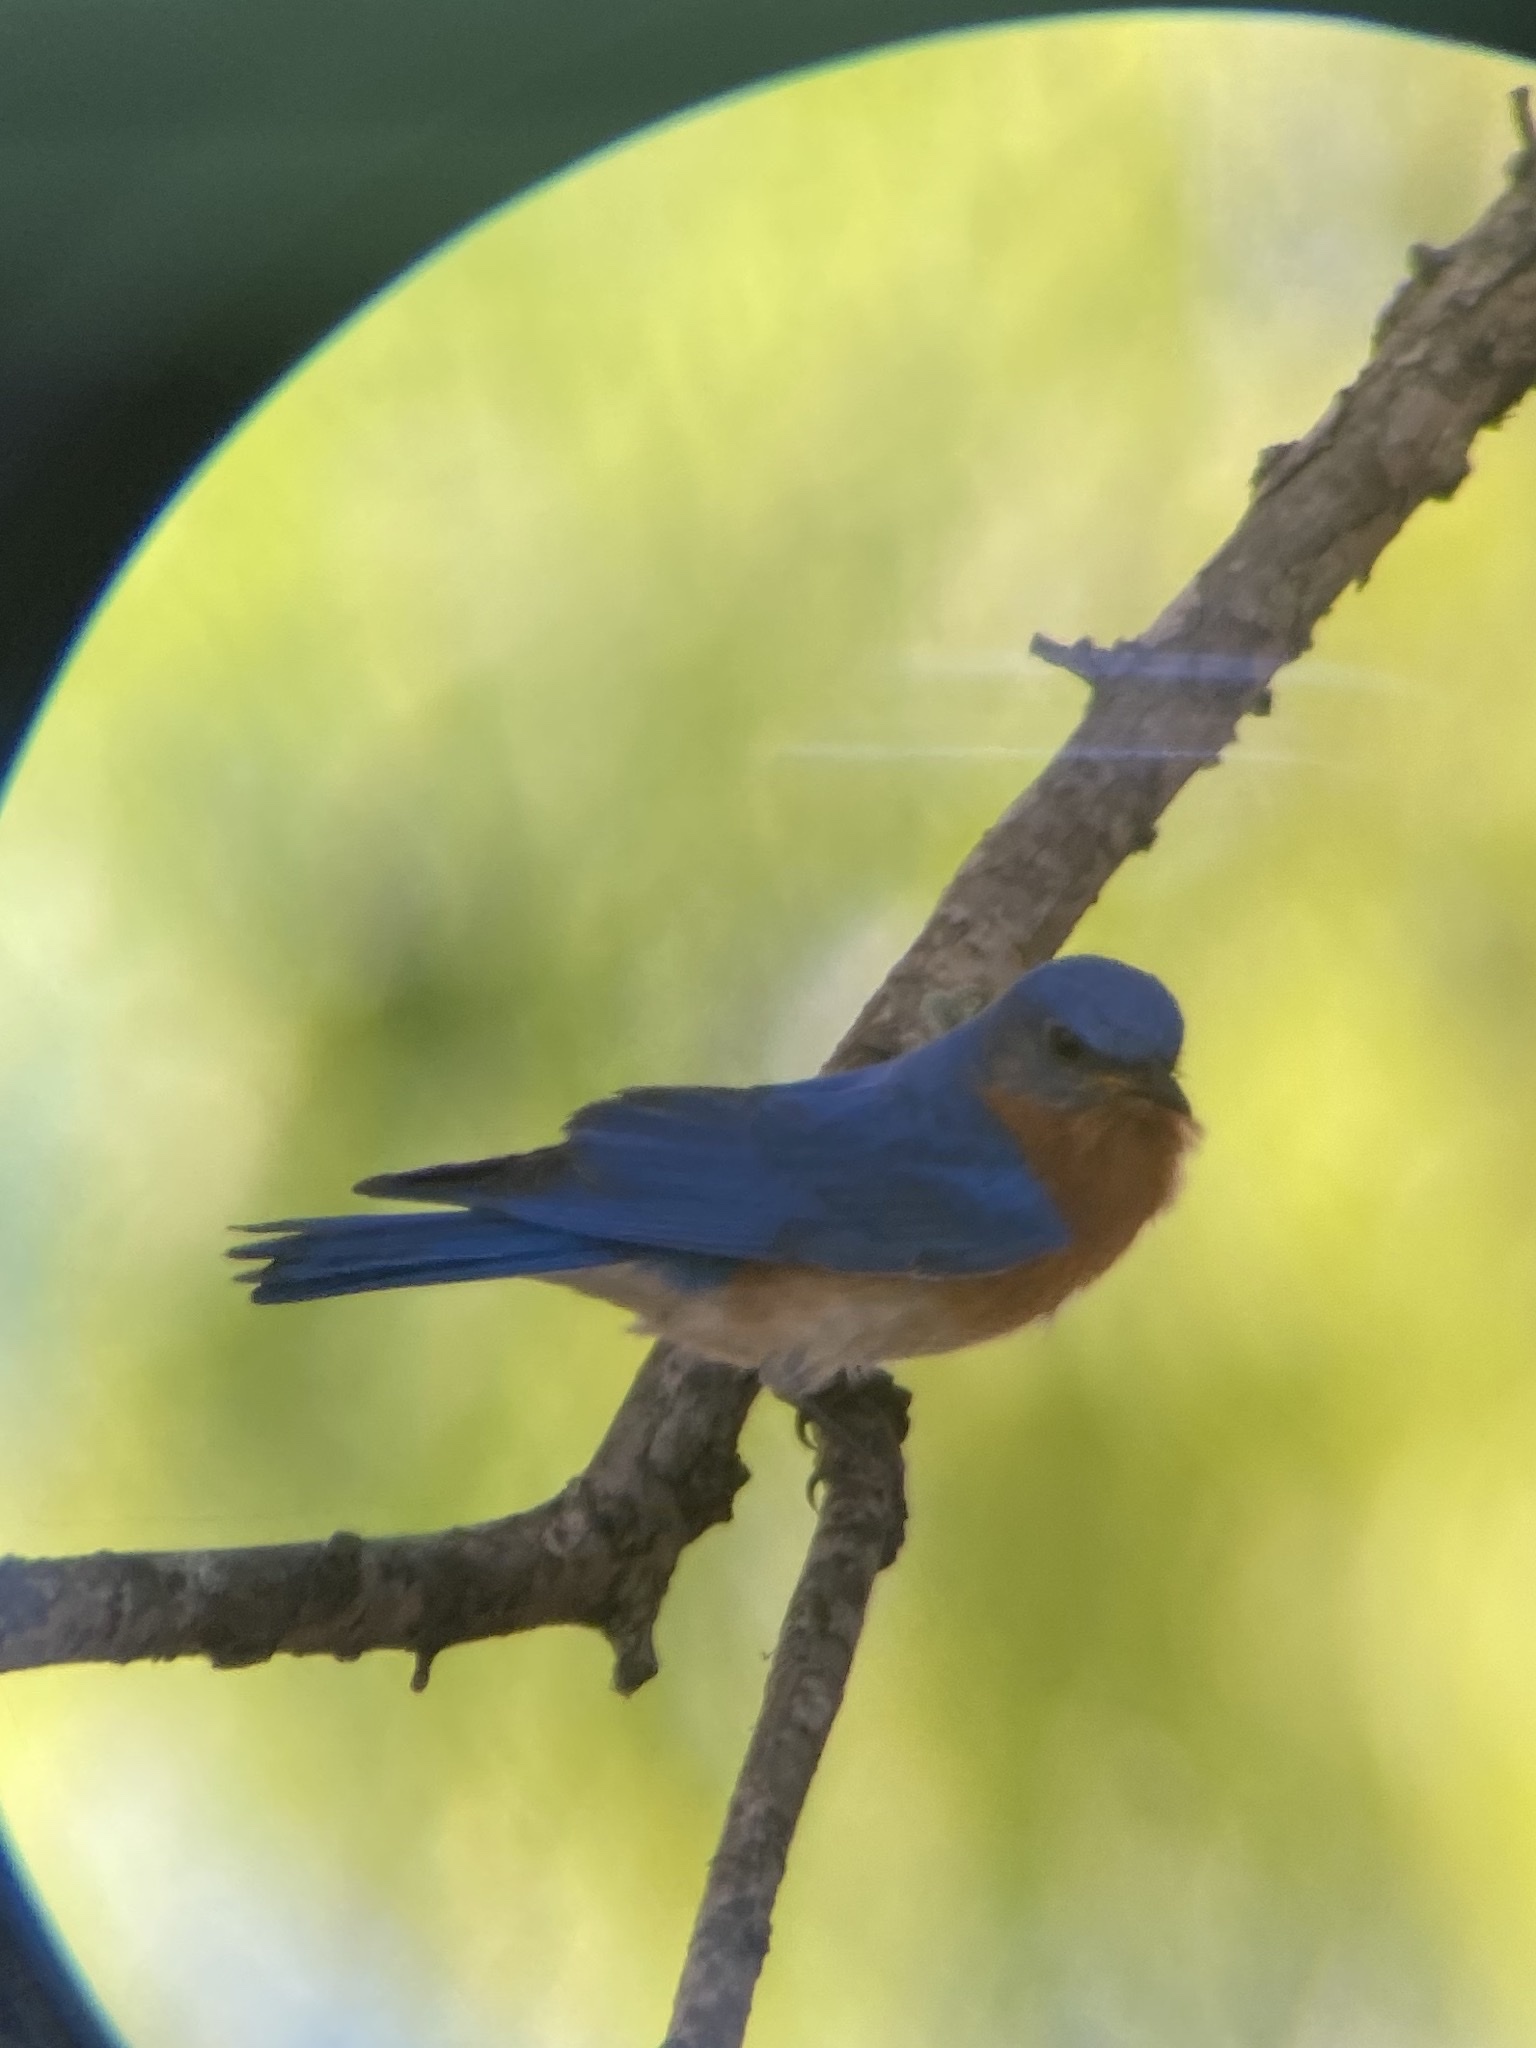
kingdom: Animalia
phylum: Chordata
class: Aves
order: Passeriformes
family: Turdidae
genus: Sialia
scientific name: Sialia sialis
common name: Eastern bluebird
